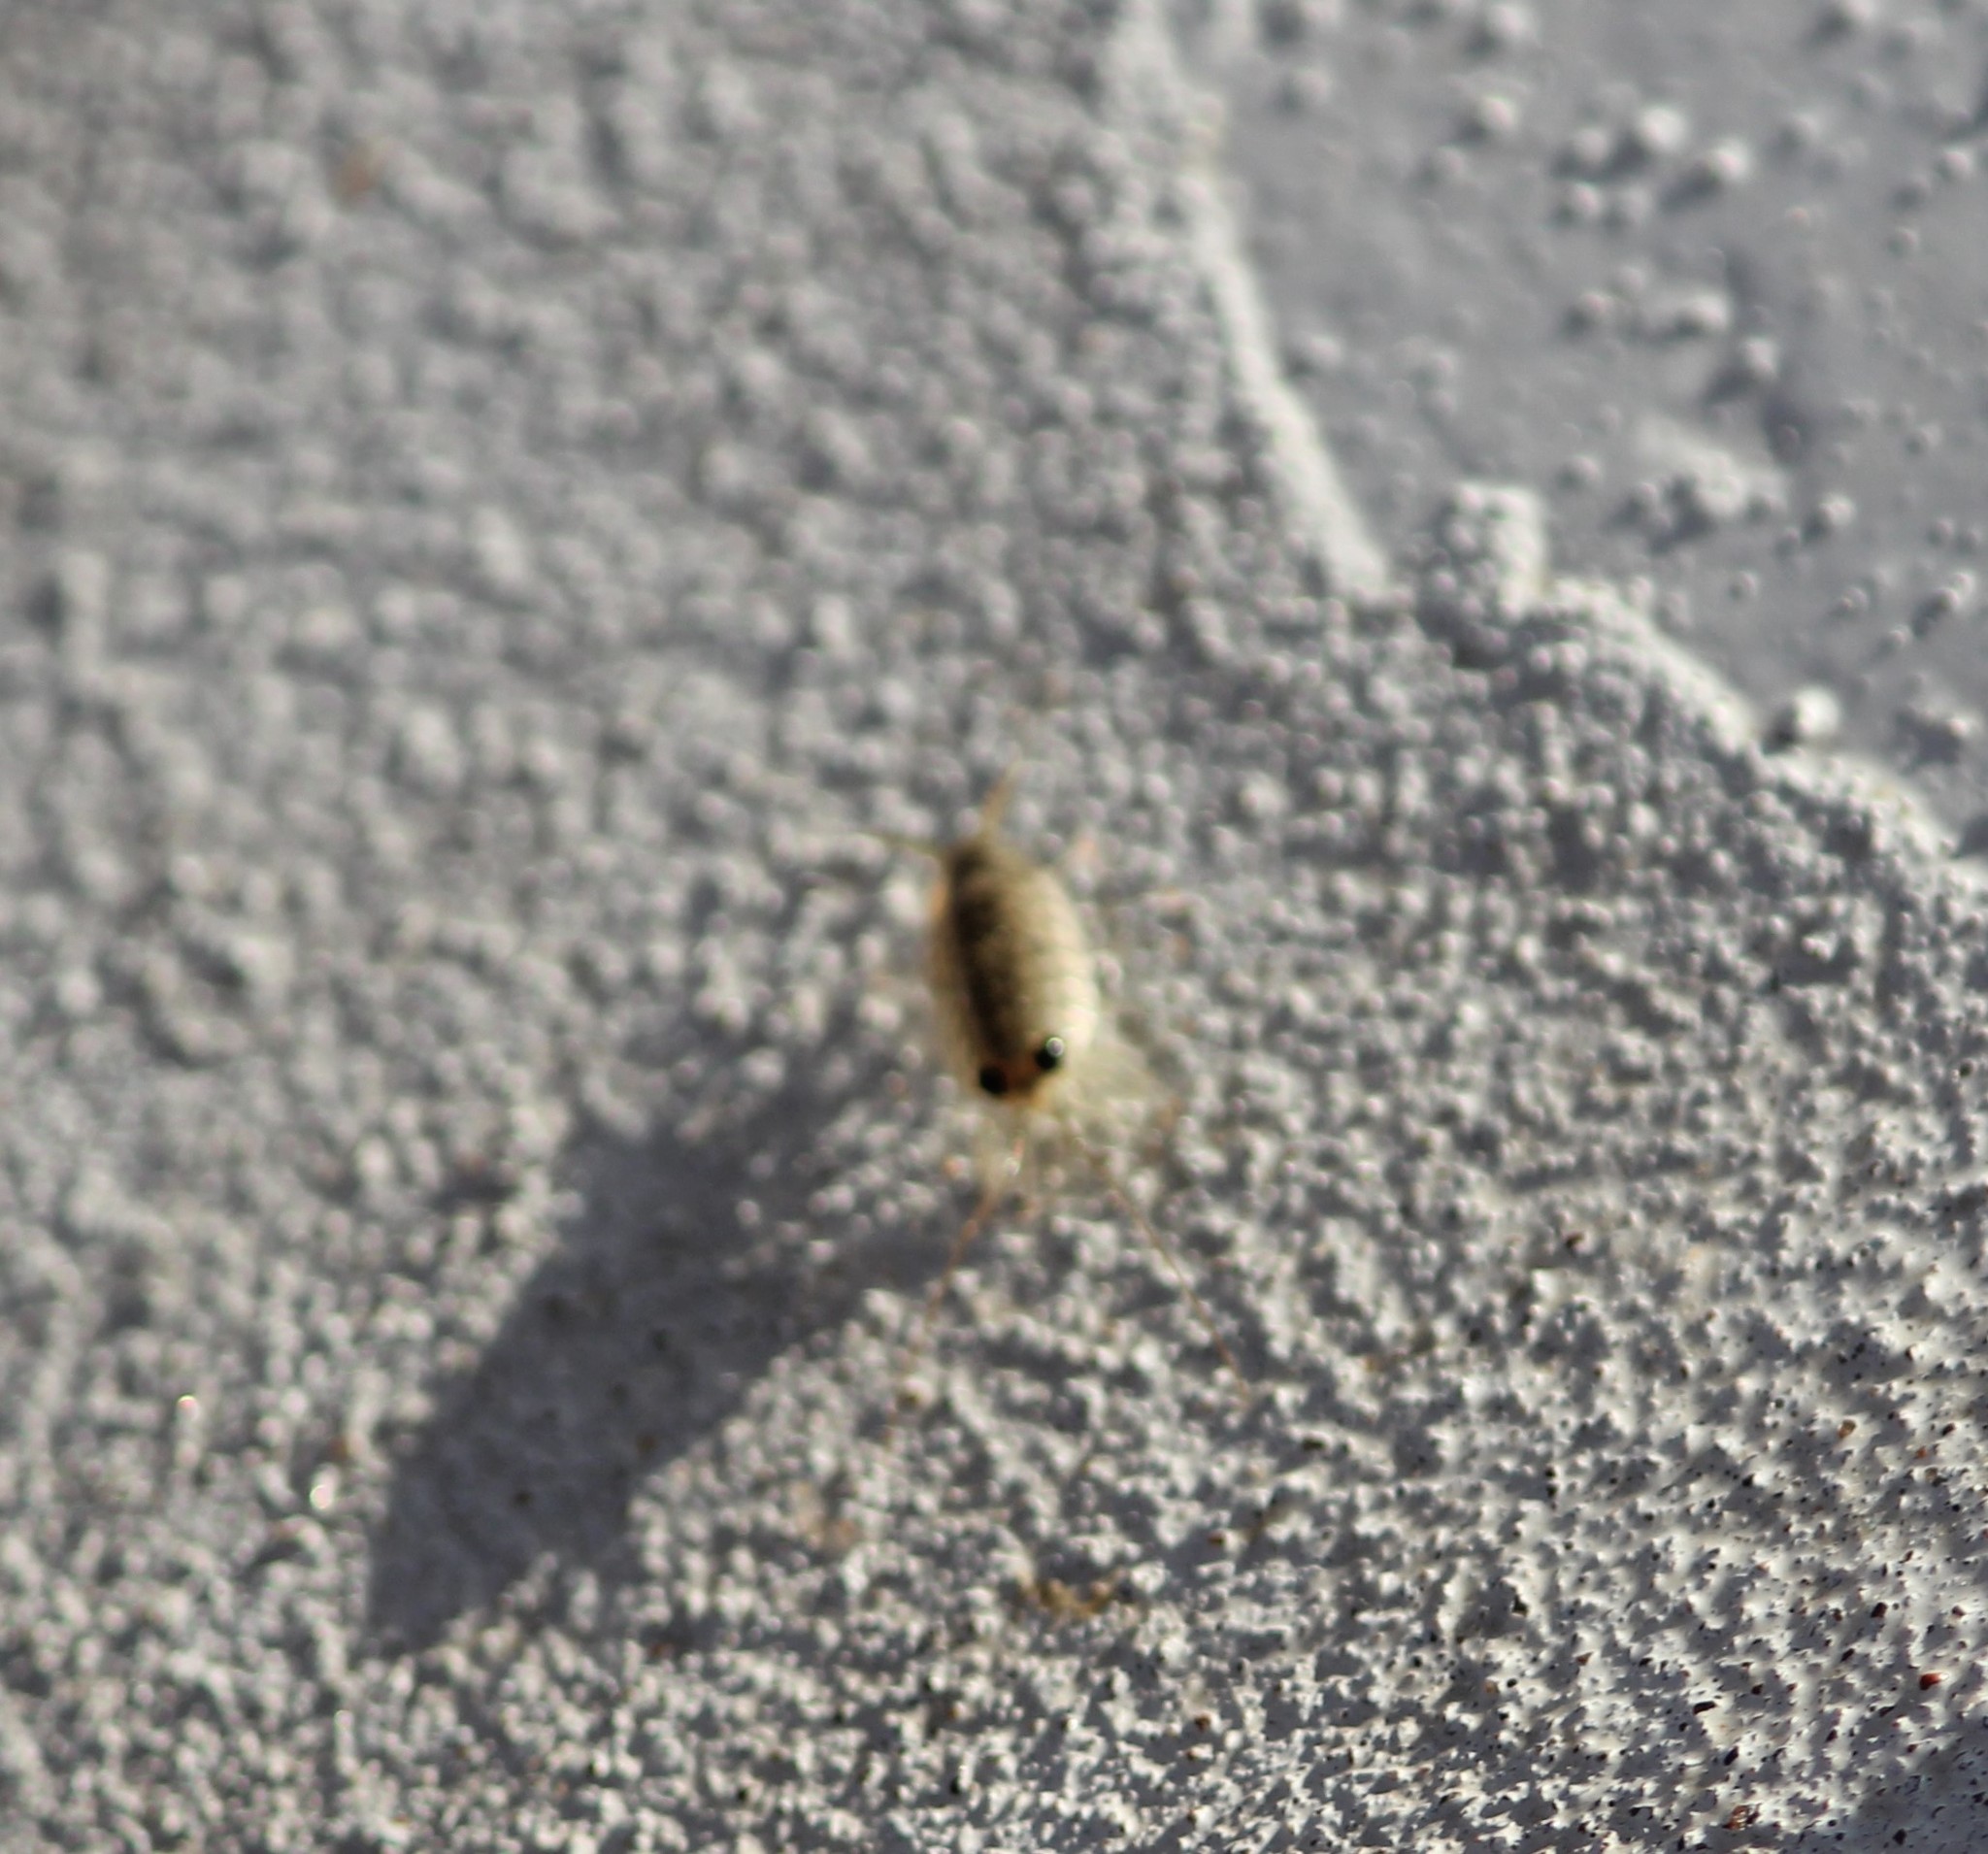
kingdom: Animalia
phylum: Arthropoda
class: Malacostraca
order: Isopoda
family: Ligiidae
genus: Ligia
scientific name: Ligia exotica
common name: Wharf roach
